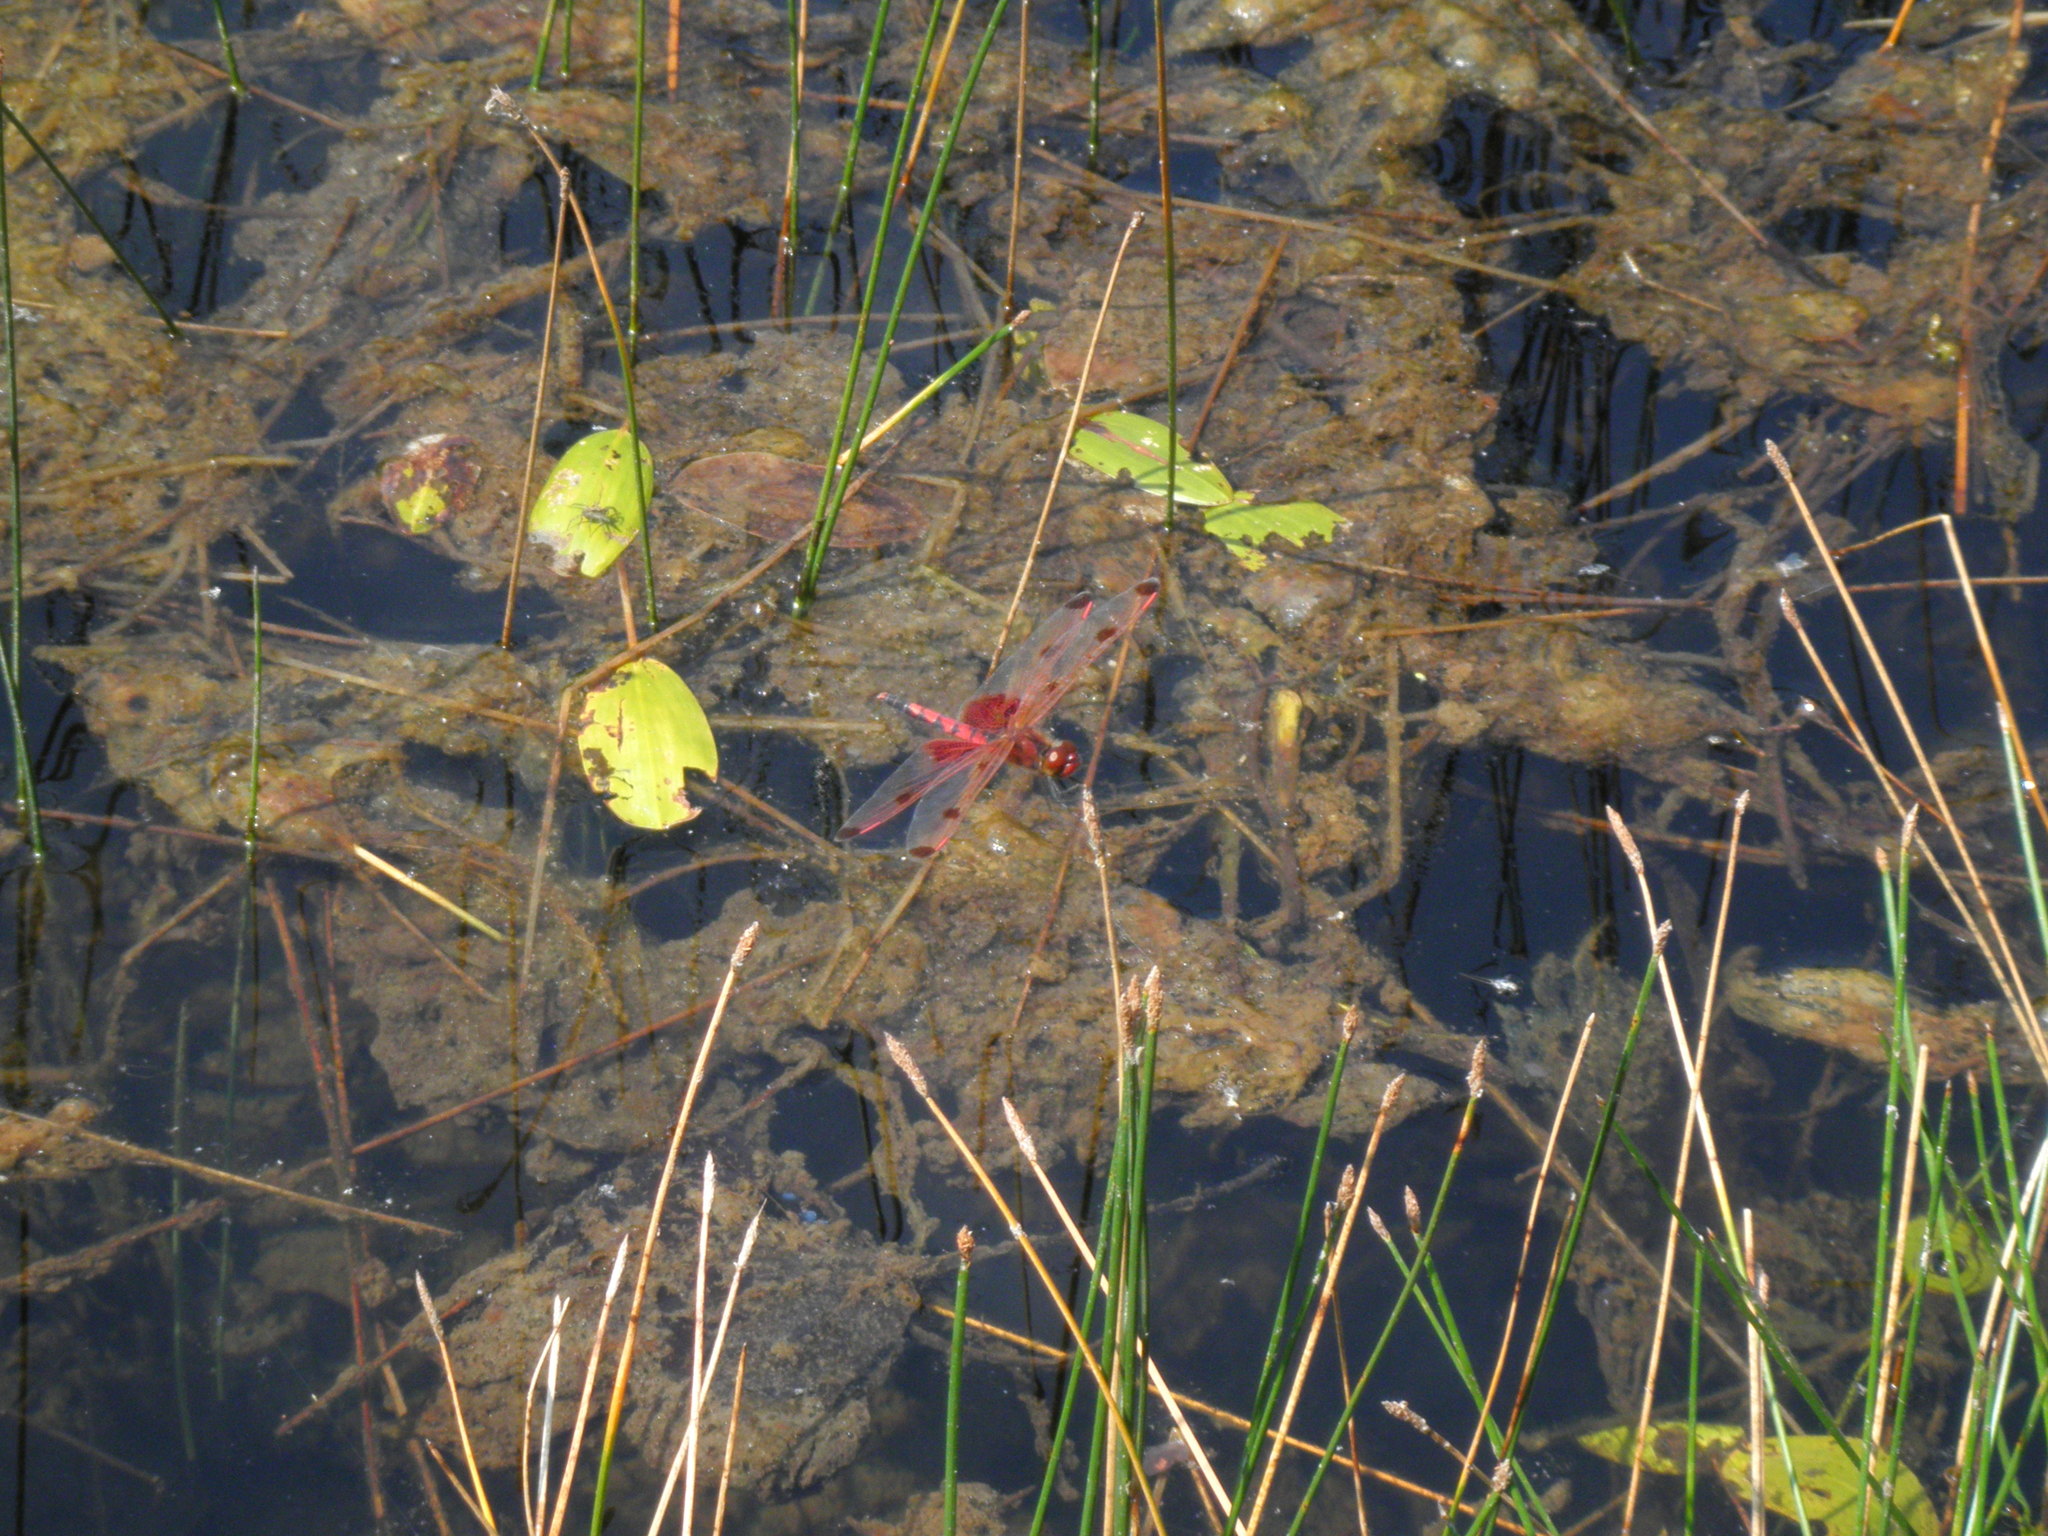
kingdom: Animalia
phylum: Arthropoda
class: Insecta
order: Odonata
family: Libellulidae
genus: Celithemis
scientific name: Celithemis elisa
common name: Calico pennant
